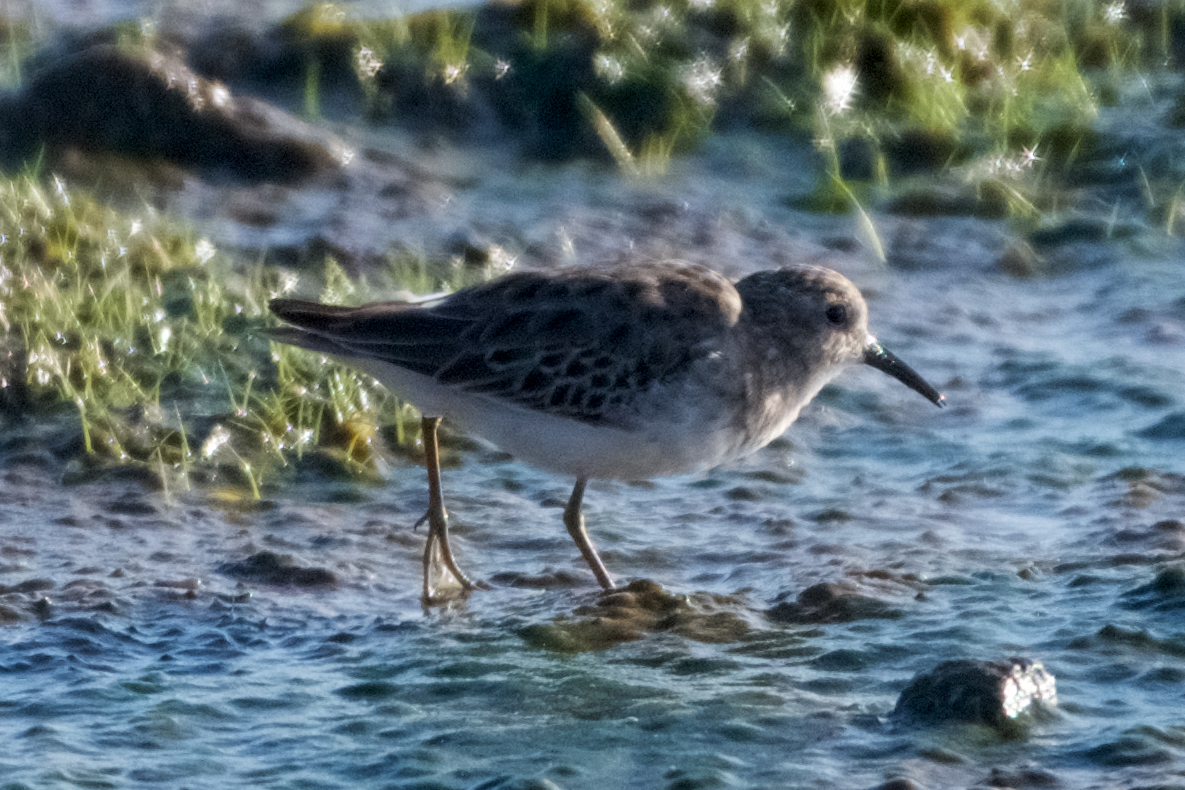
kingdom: Animalia
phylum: Chordata
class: Aves
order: Charadriiformes
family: Scolopacidae
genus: Calidris
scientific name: Calidris minutilla
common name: Least sandpiper
